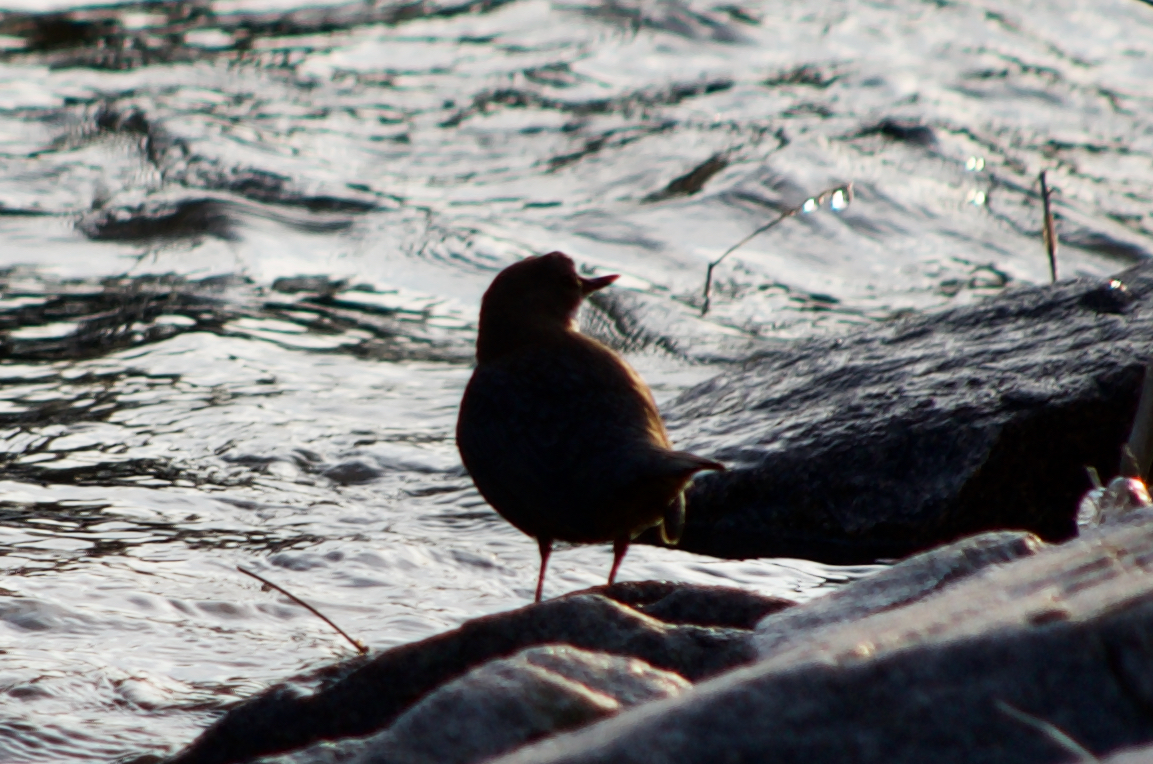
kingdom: Animalia
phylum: Chordata
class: Aves
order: Passeriformes
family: Cinclidae
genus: Cinclus
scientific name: Cinclus cinclus
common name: White-throated dipper
